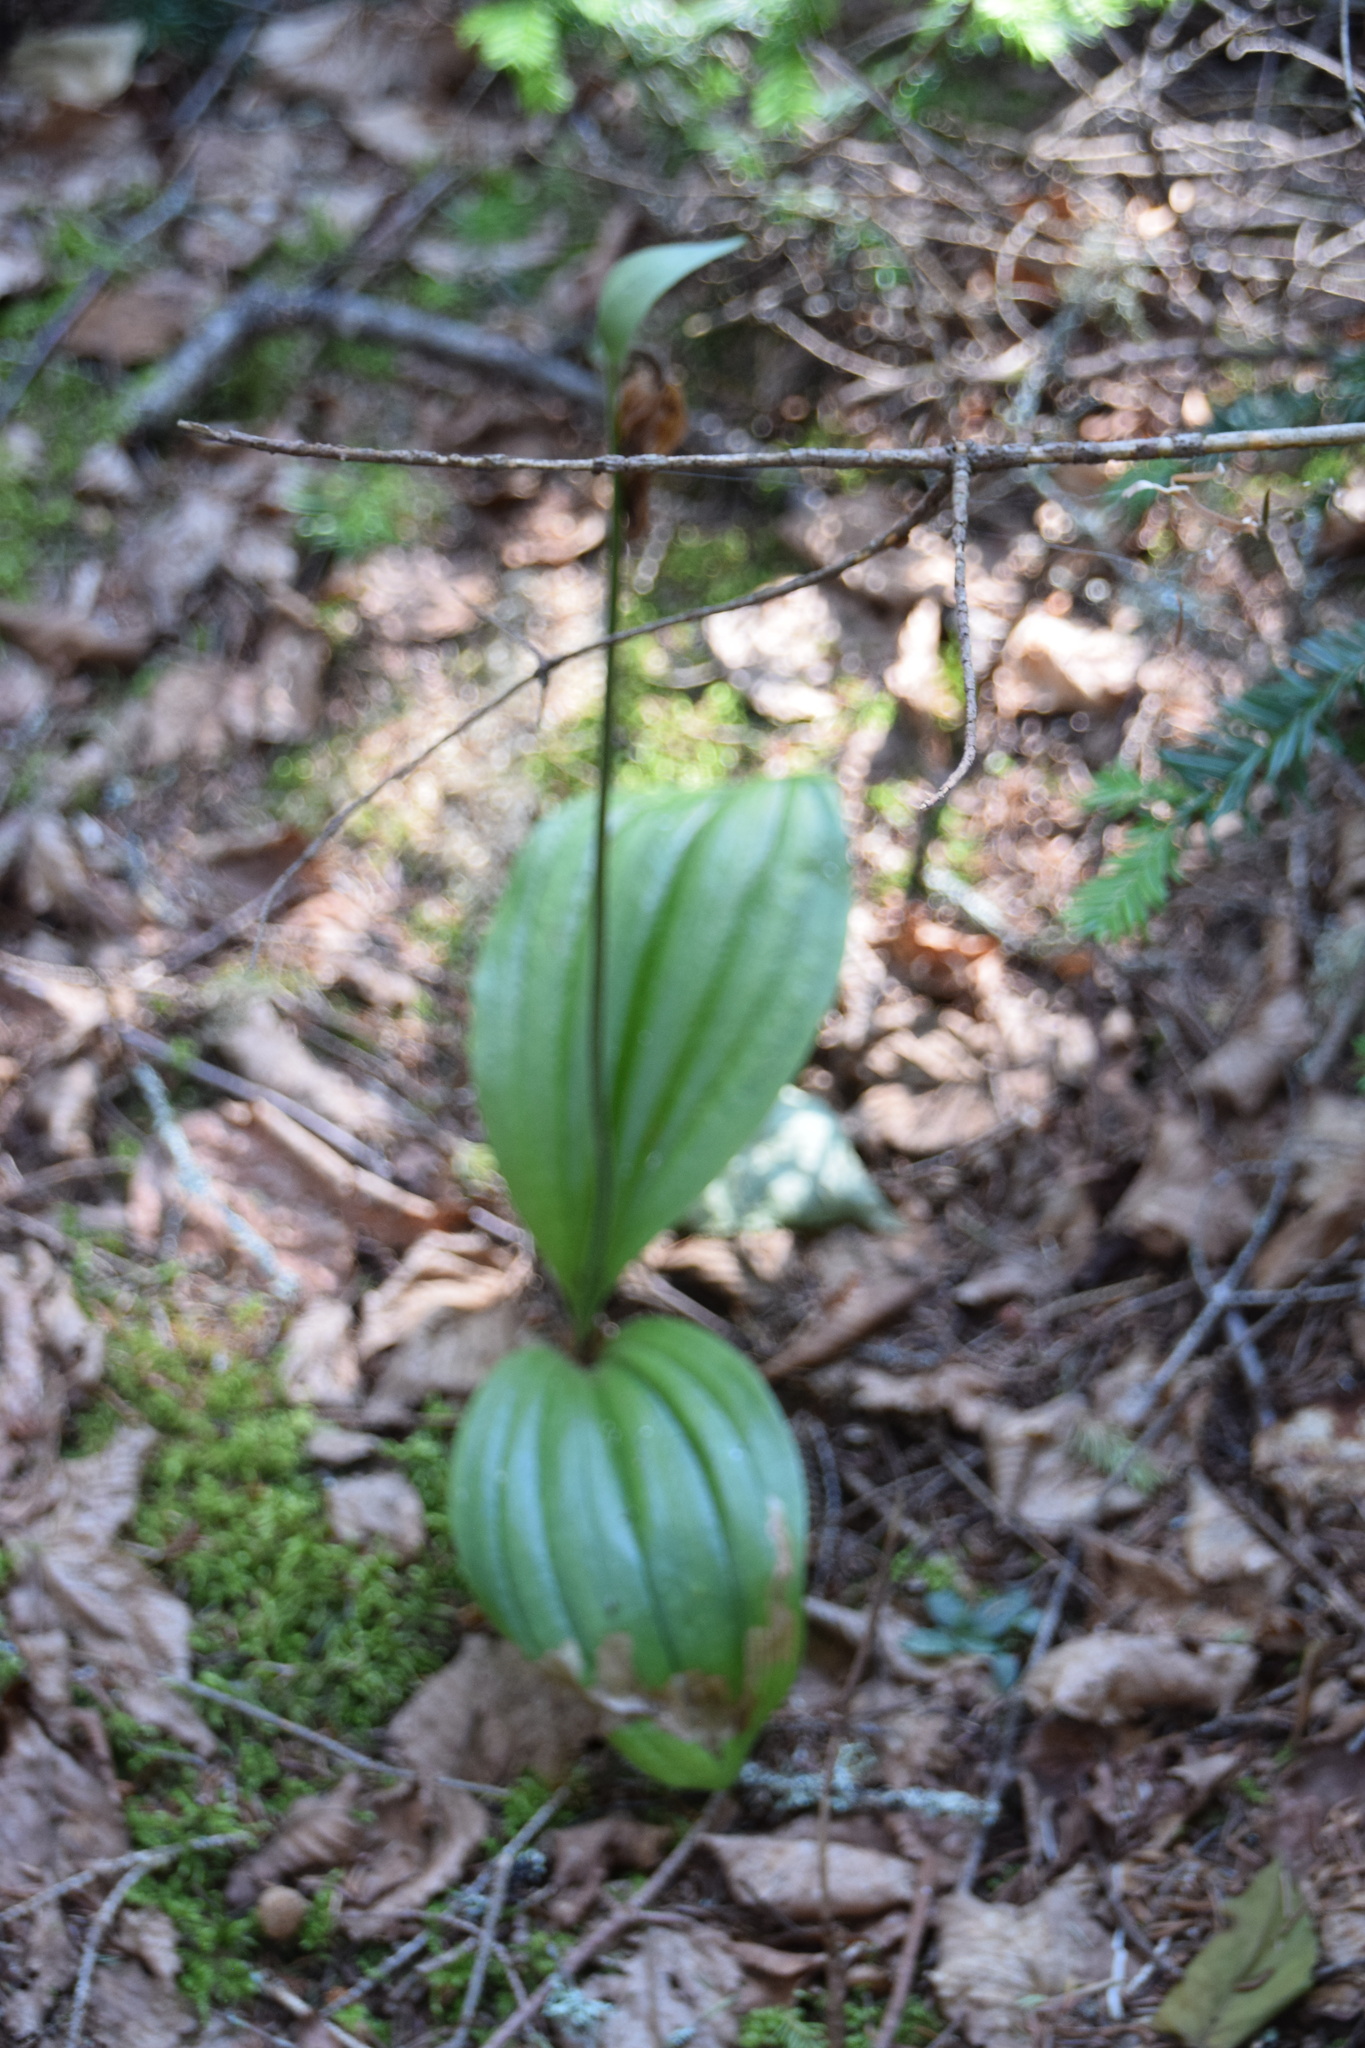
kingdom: Plantae
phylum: Tracheophyta
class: Liliopsida
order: Asparagales
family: Orchidaceae
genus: Cypripedium
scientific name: Cypripedium acaule
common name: Pink lady's-slipper
